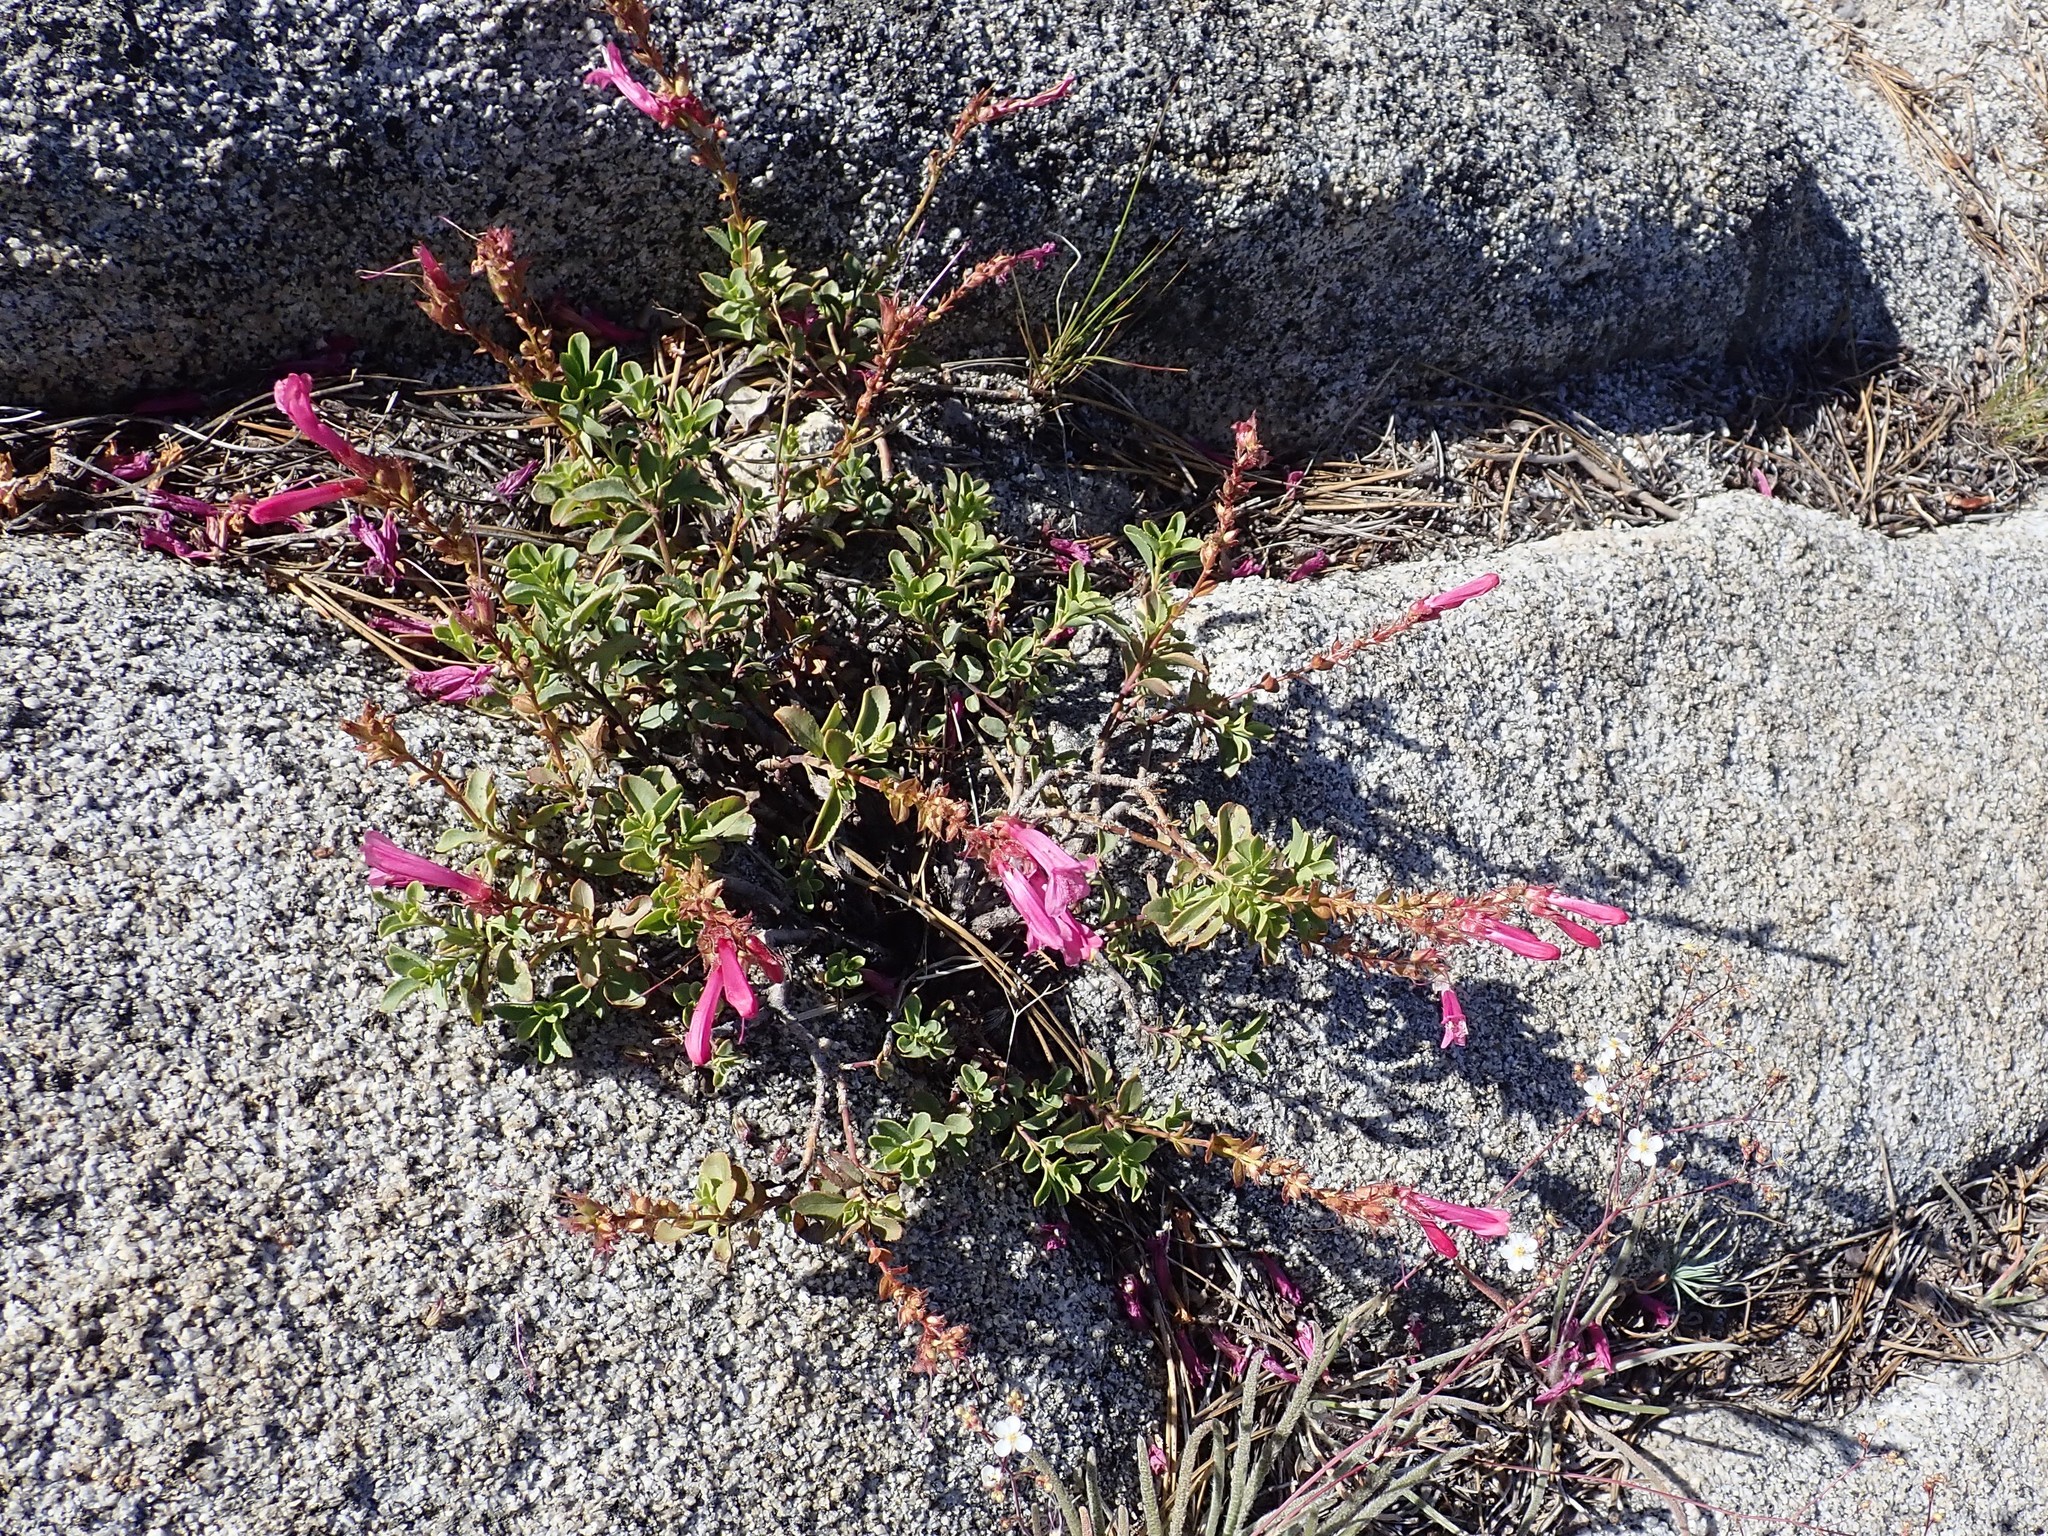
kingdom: Plantae
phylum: Tracheophyta
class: Magnoliopsida
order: Lamiales
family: Plantaginaceae
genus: Penstemon
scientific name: Penstemon newberryi
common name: Mountain-pride
